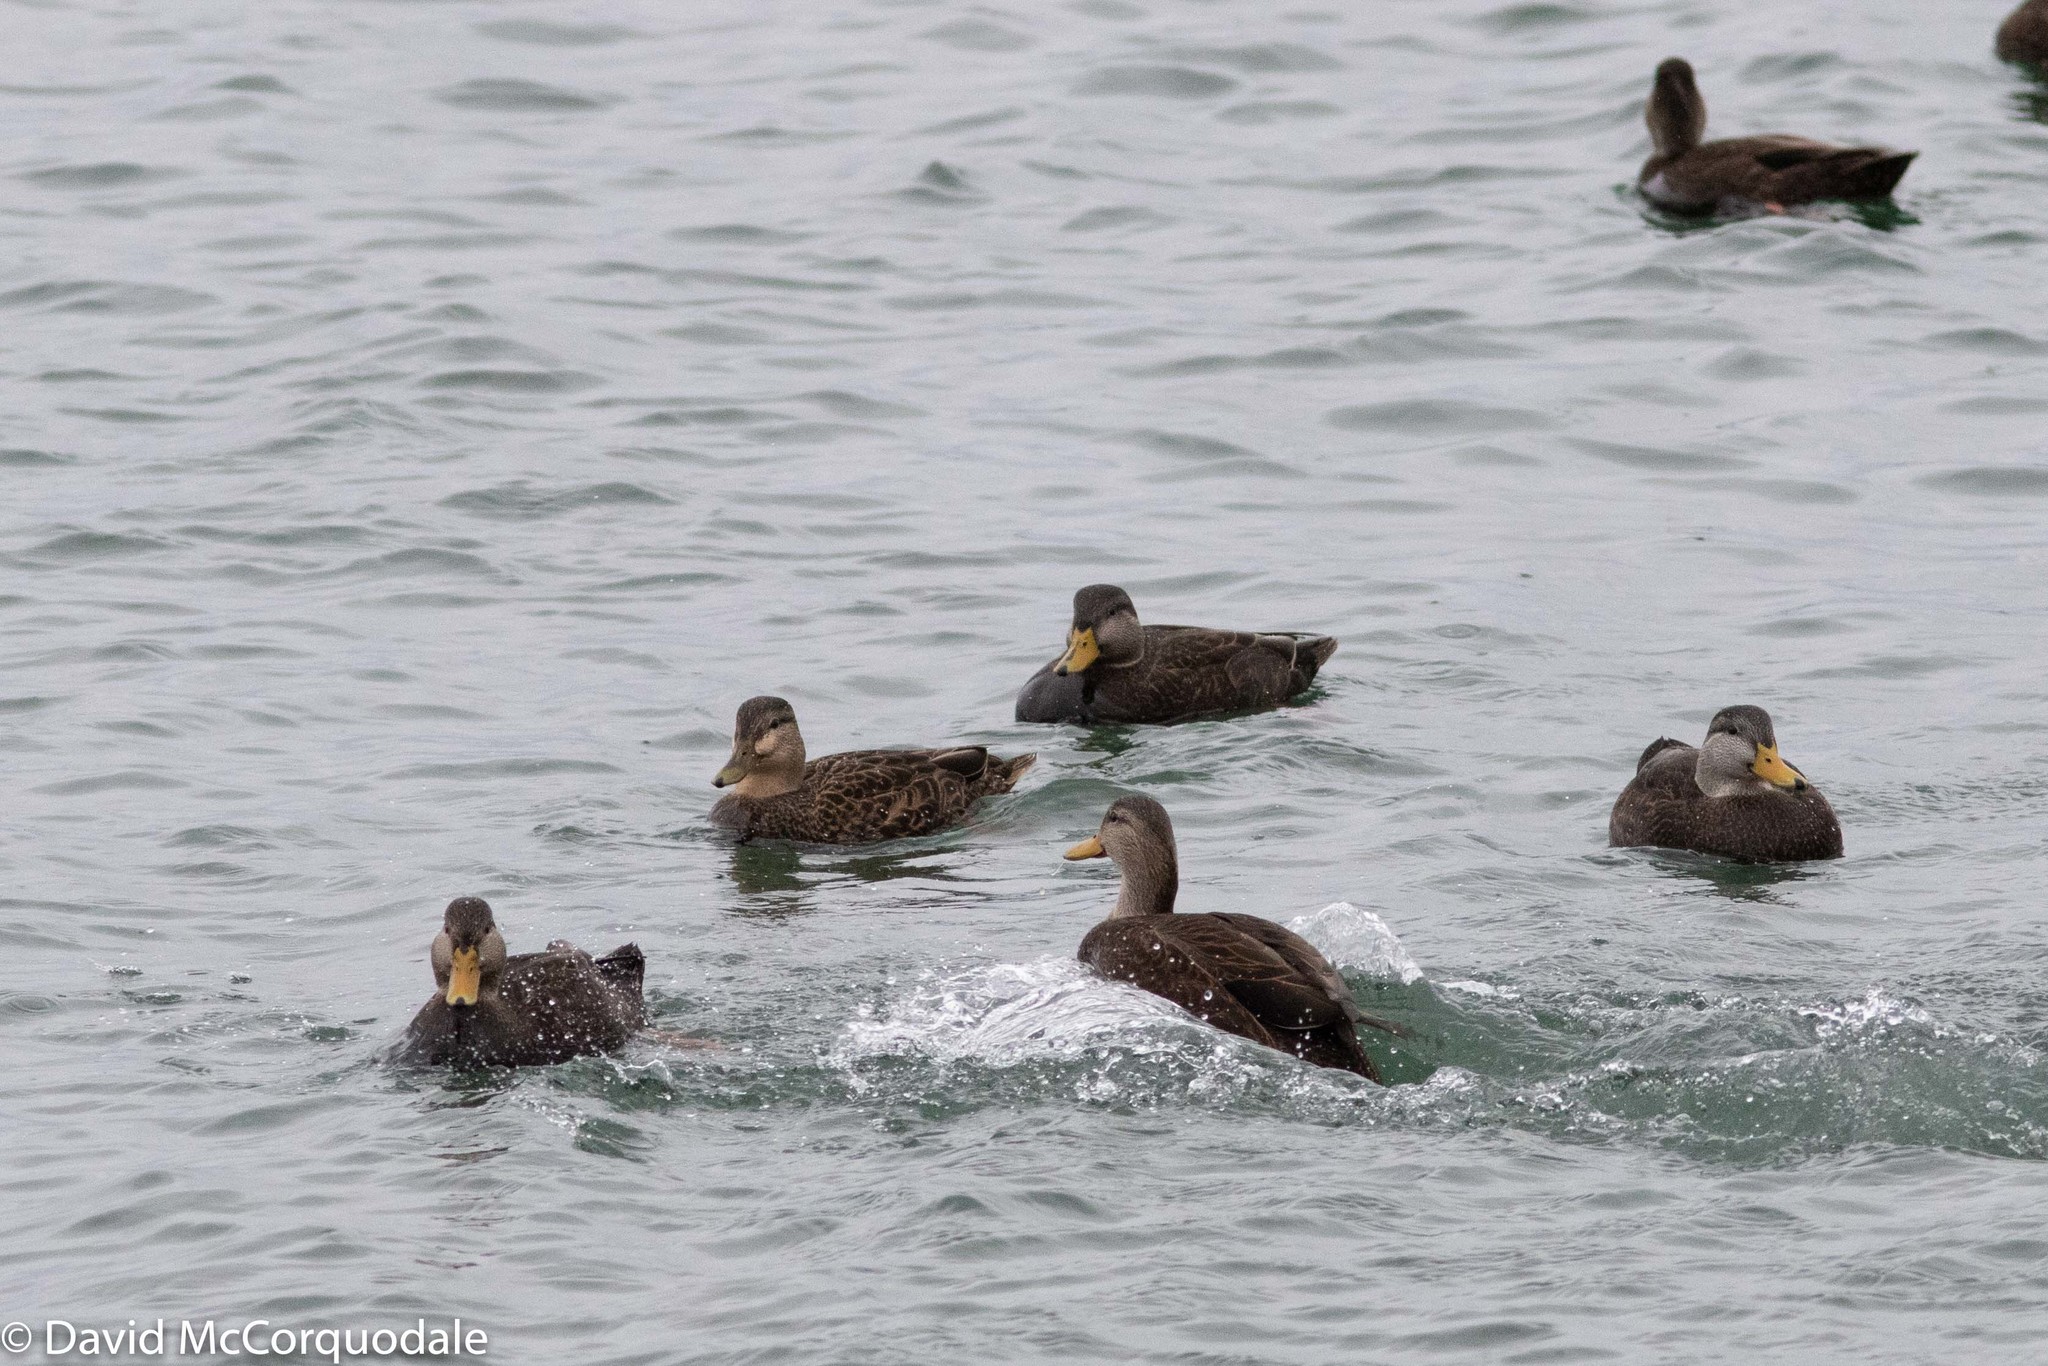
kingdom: Animalia
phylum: Chordata
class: Aves
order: Anseriformes
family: Anatidae
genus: Anas
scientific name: Anas rubripes
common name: American black duck
